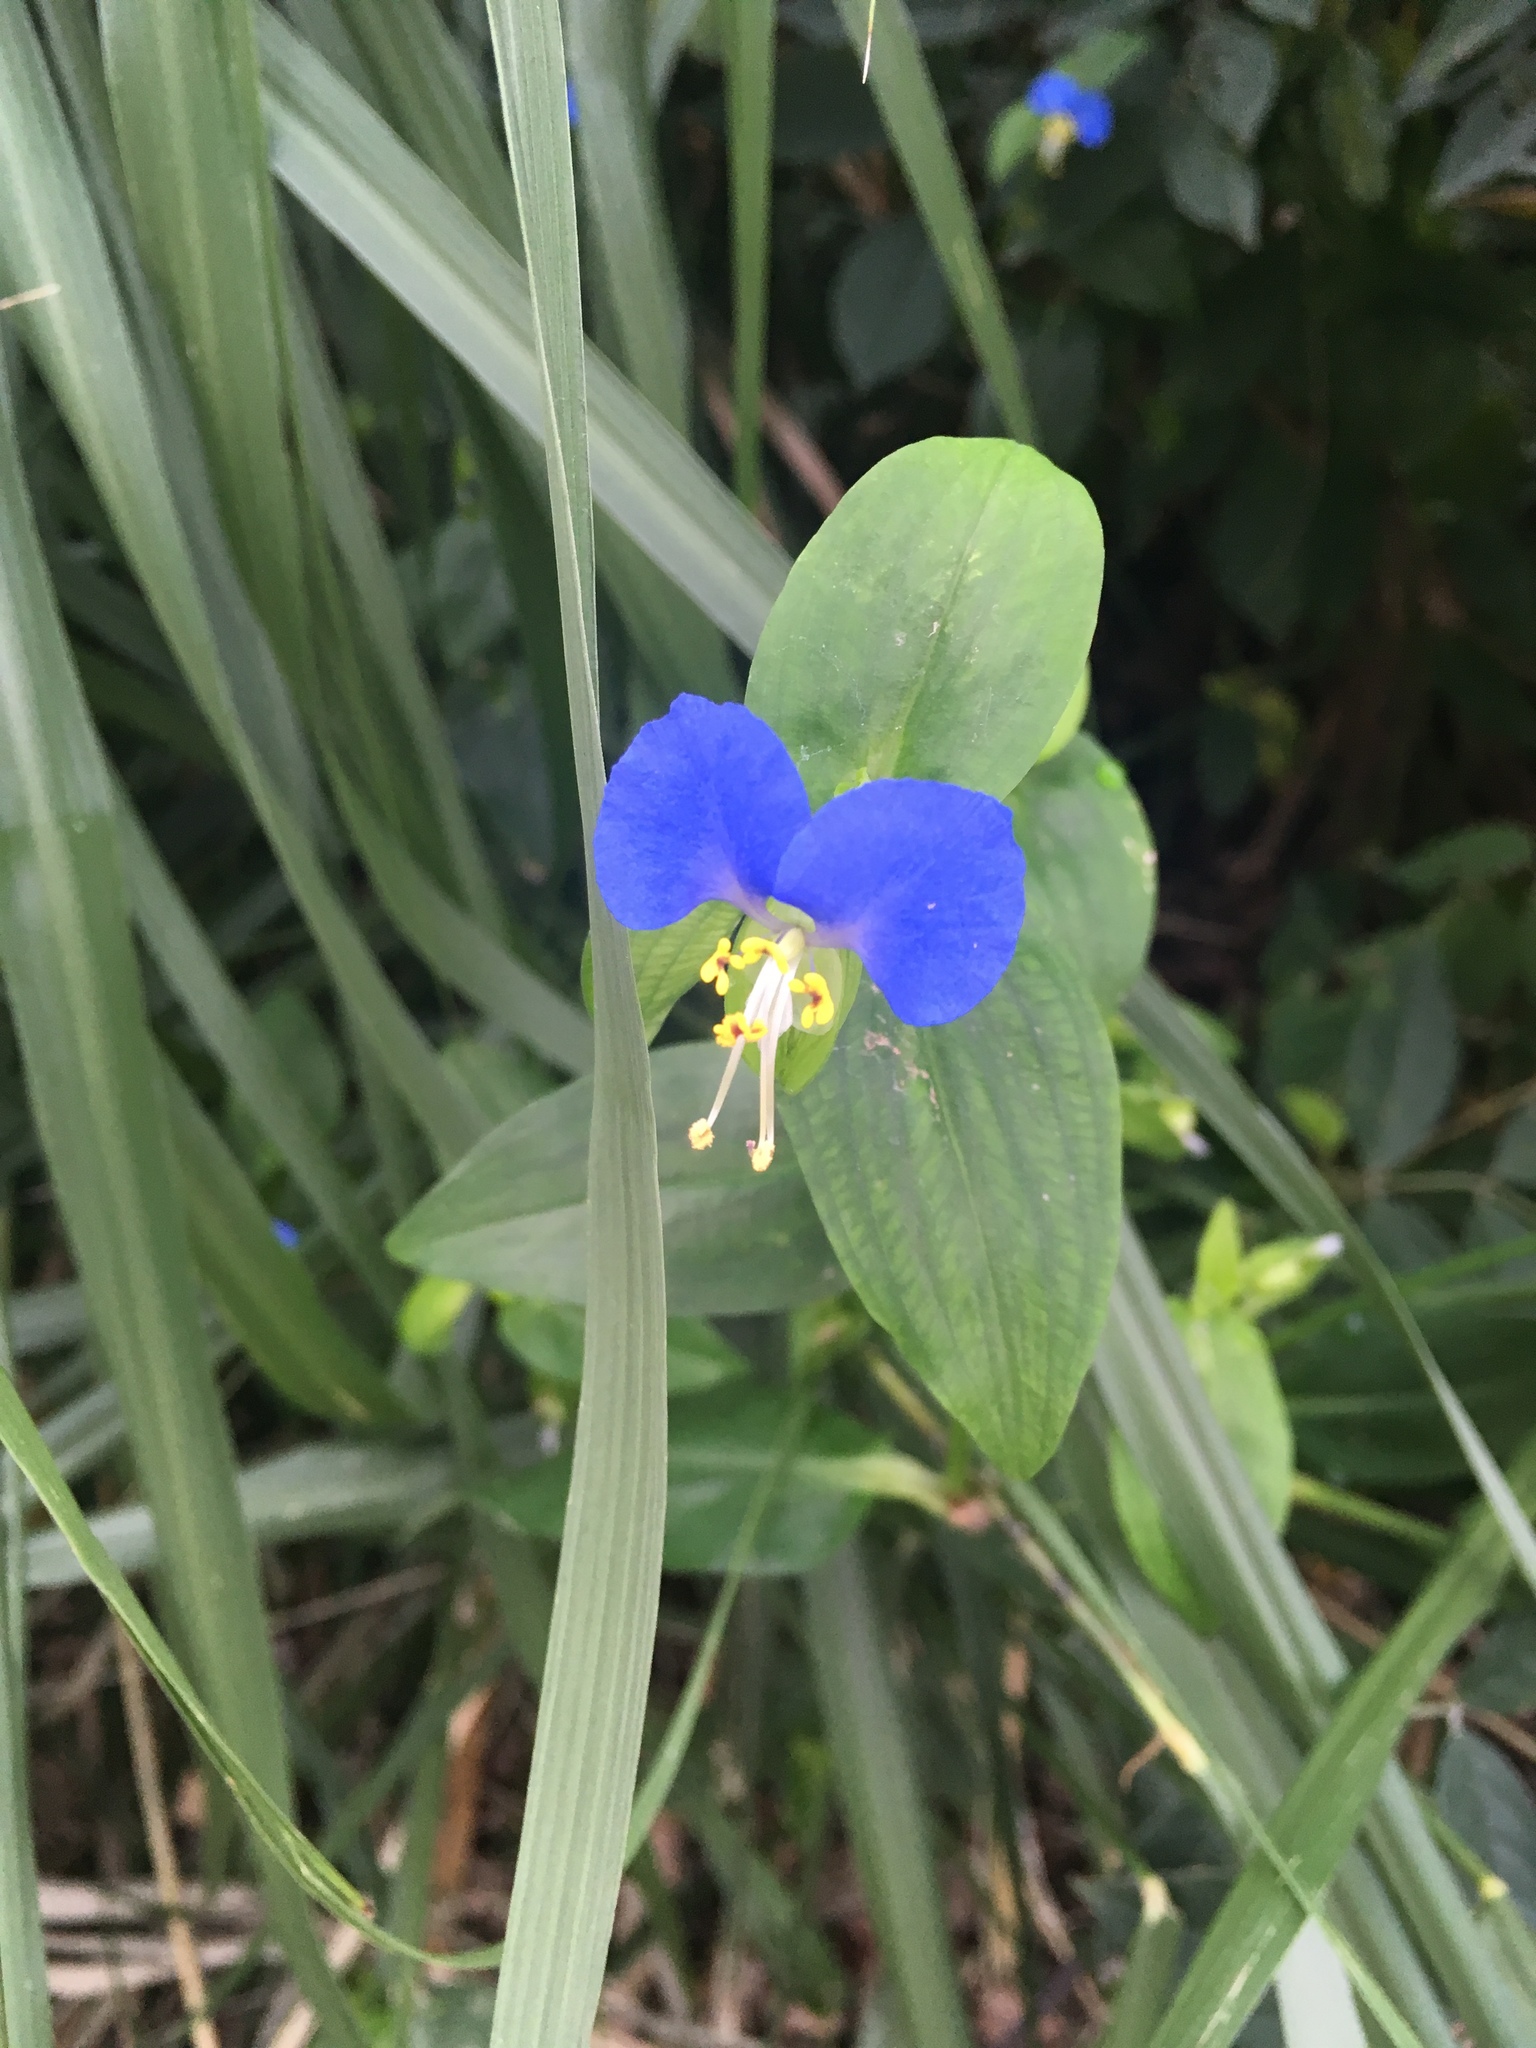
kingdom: Plantae
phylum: Tracheophyta
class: Liliopsida
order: Commelinales
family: Commelinaceae
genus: Commelina
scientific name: Commelina communis
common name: Asiatic dayflower
